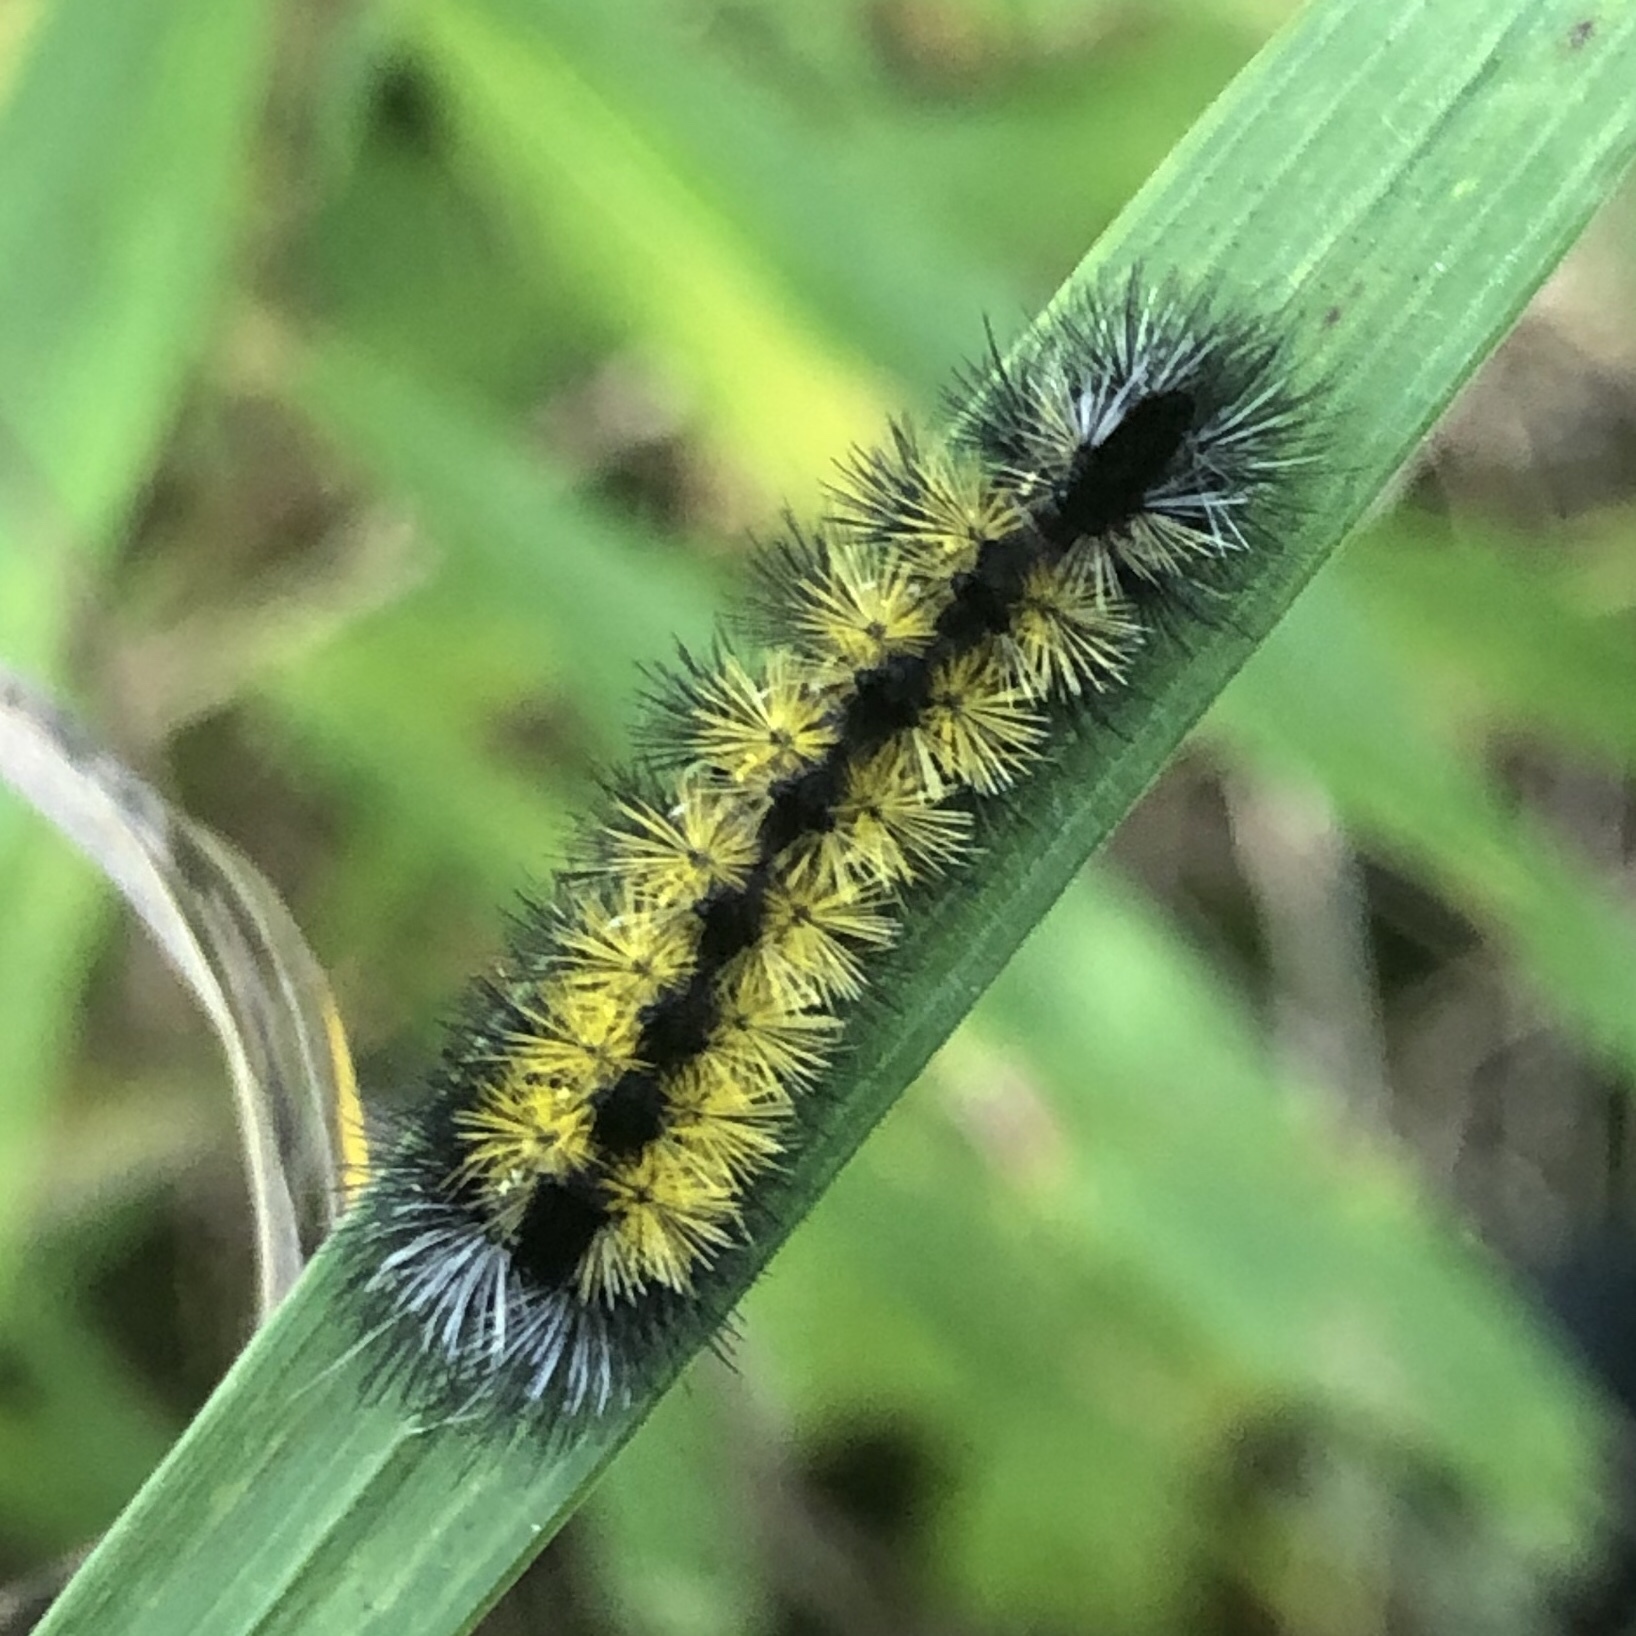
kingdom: Animalia
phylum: Arthropoda
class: Insecta
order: Lepidoptera
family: Erebidae
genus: Ctenucha
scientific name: Ctenucha virginica
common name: Virginia ctenucha moth
